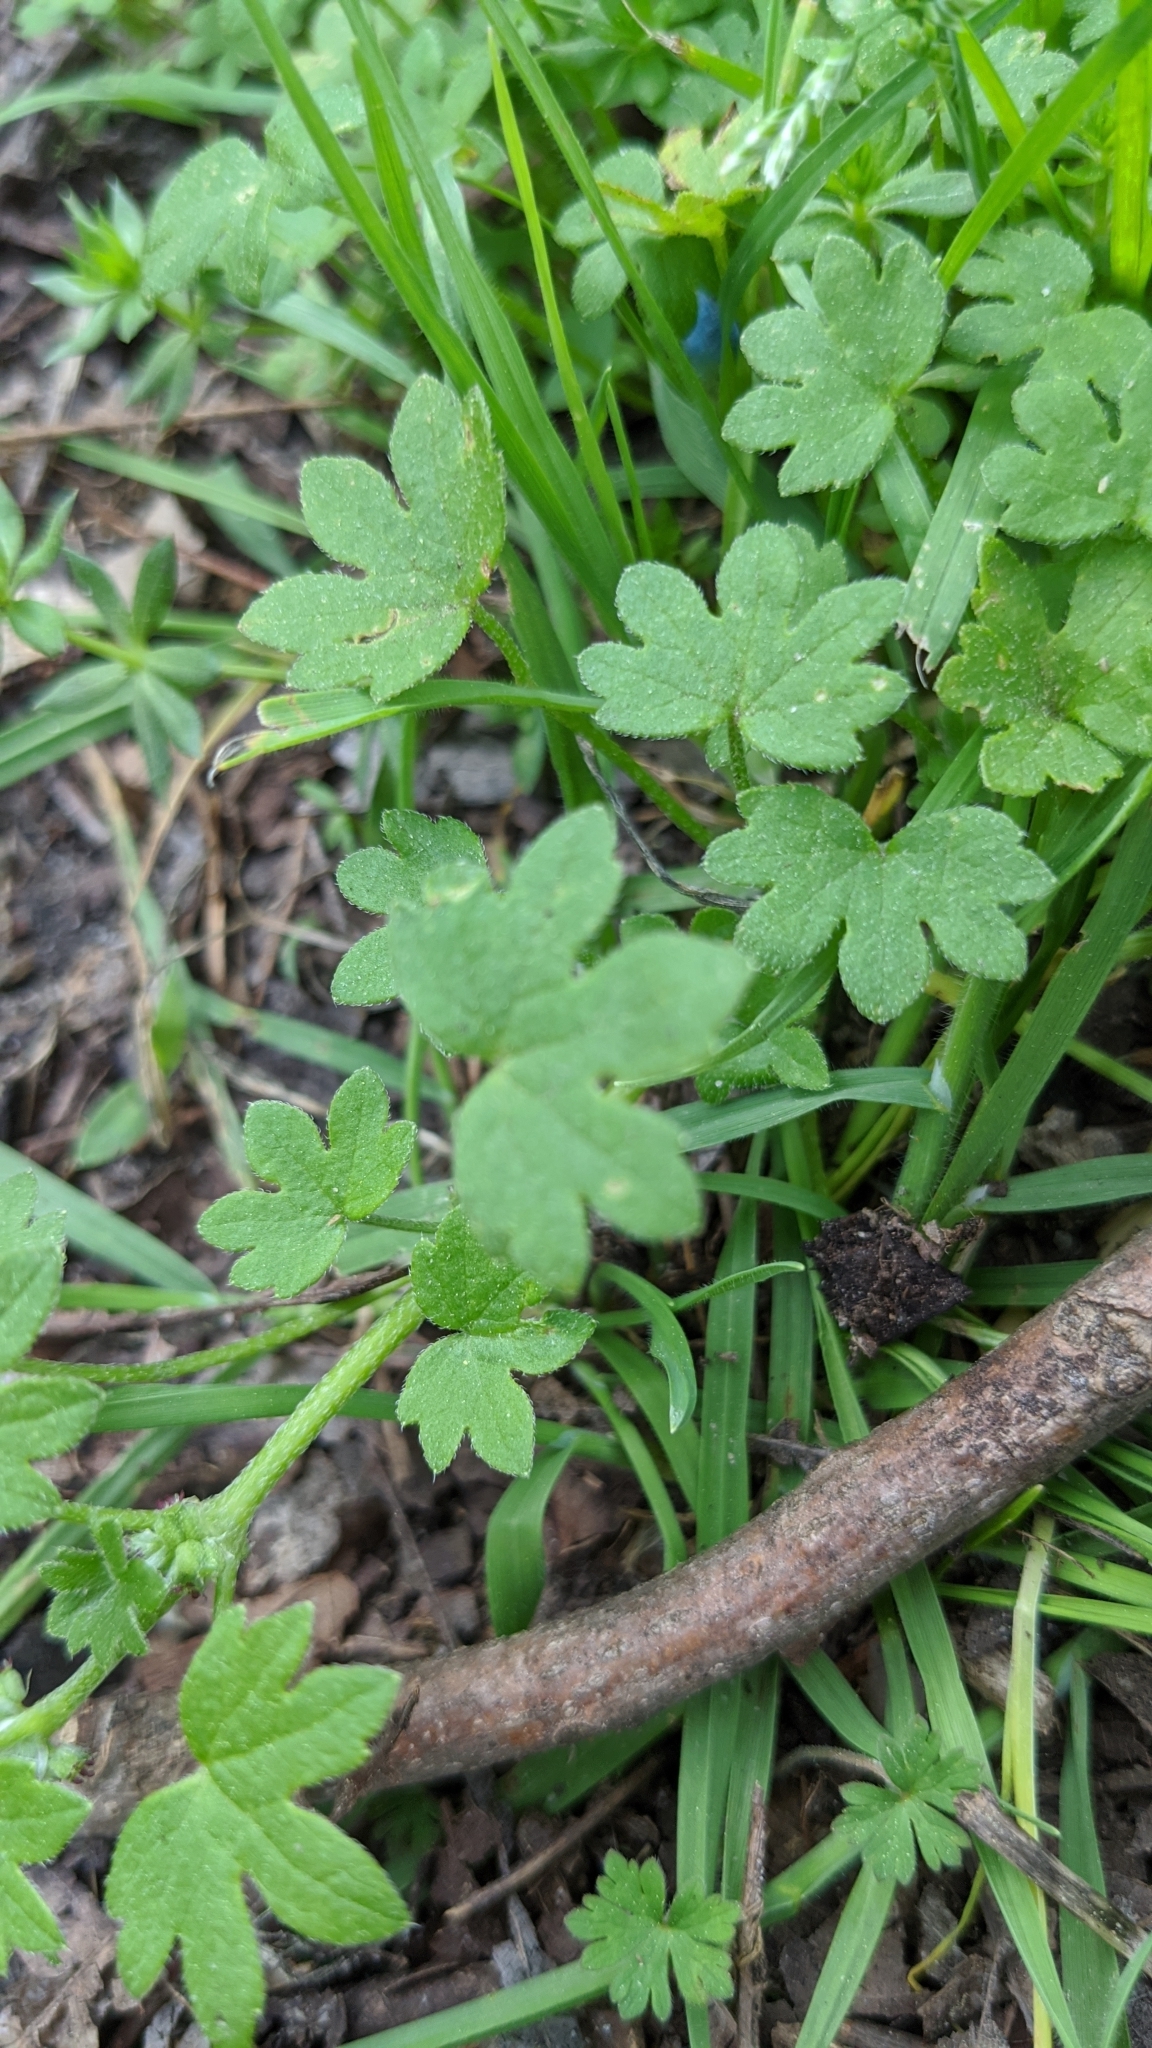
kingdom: Plantae
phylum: Tracheophyta
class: Magnoliopsida
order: Apiales
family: Apiaceae
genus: Bowlesia
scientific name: Bowlesia incana
